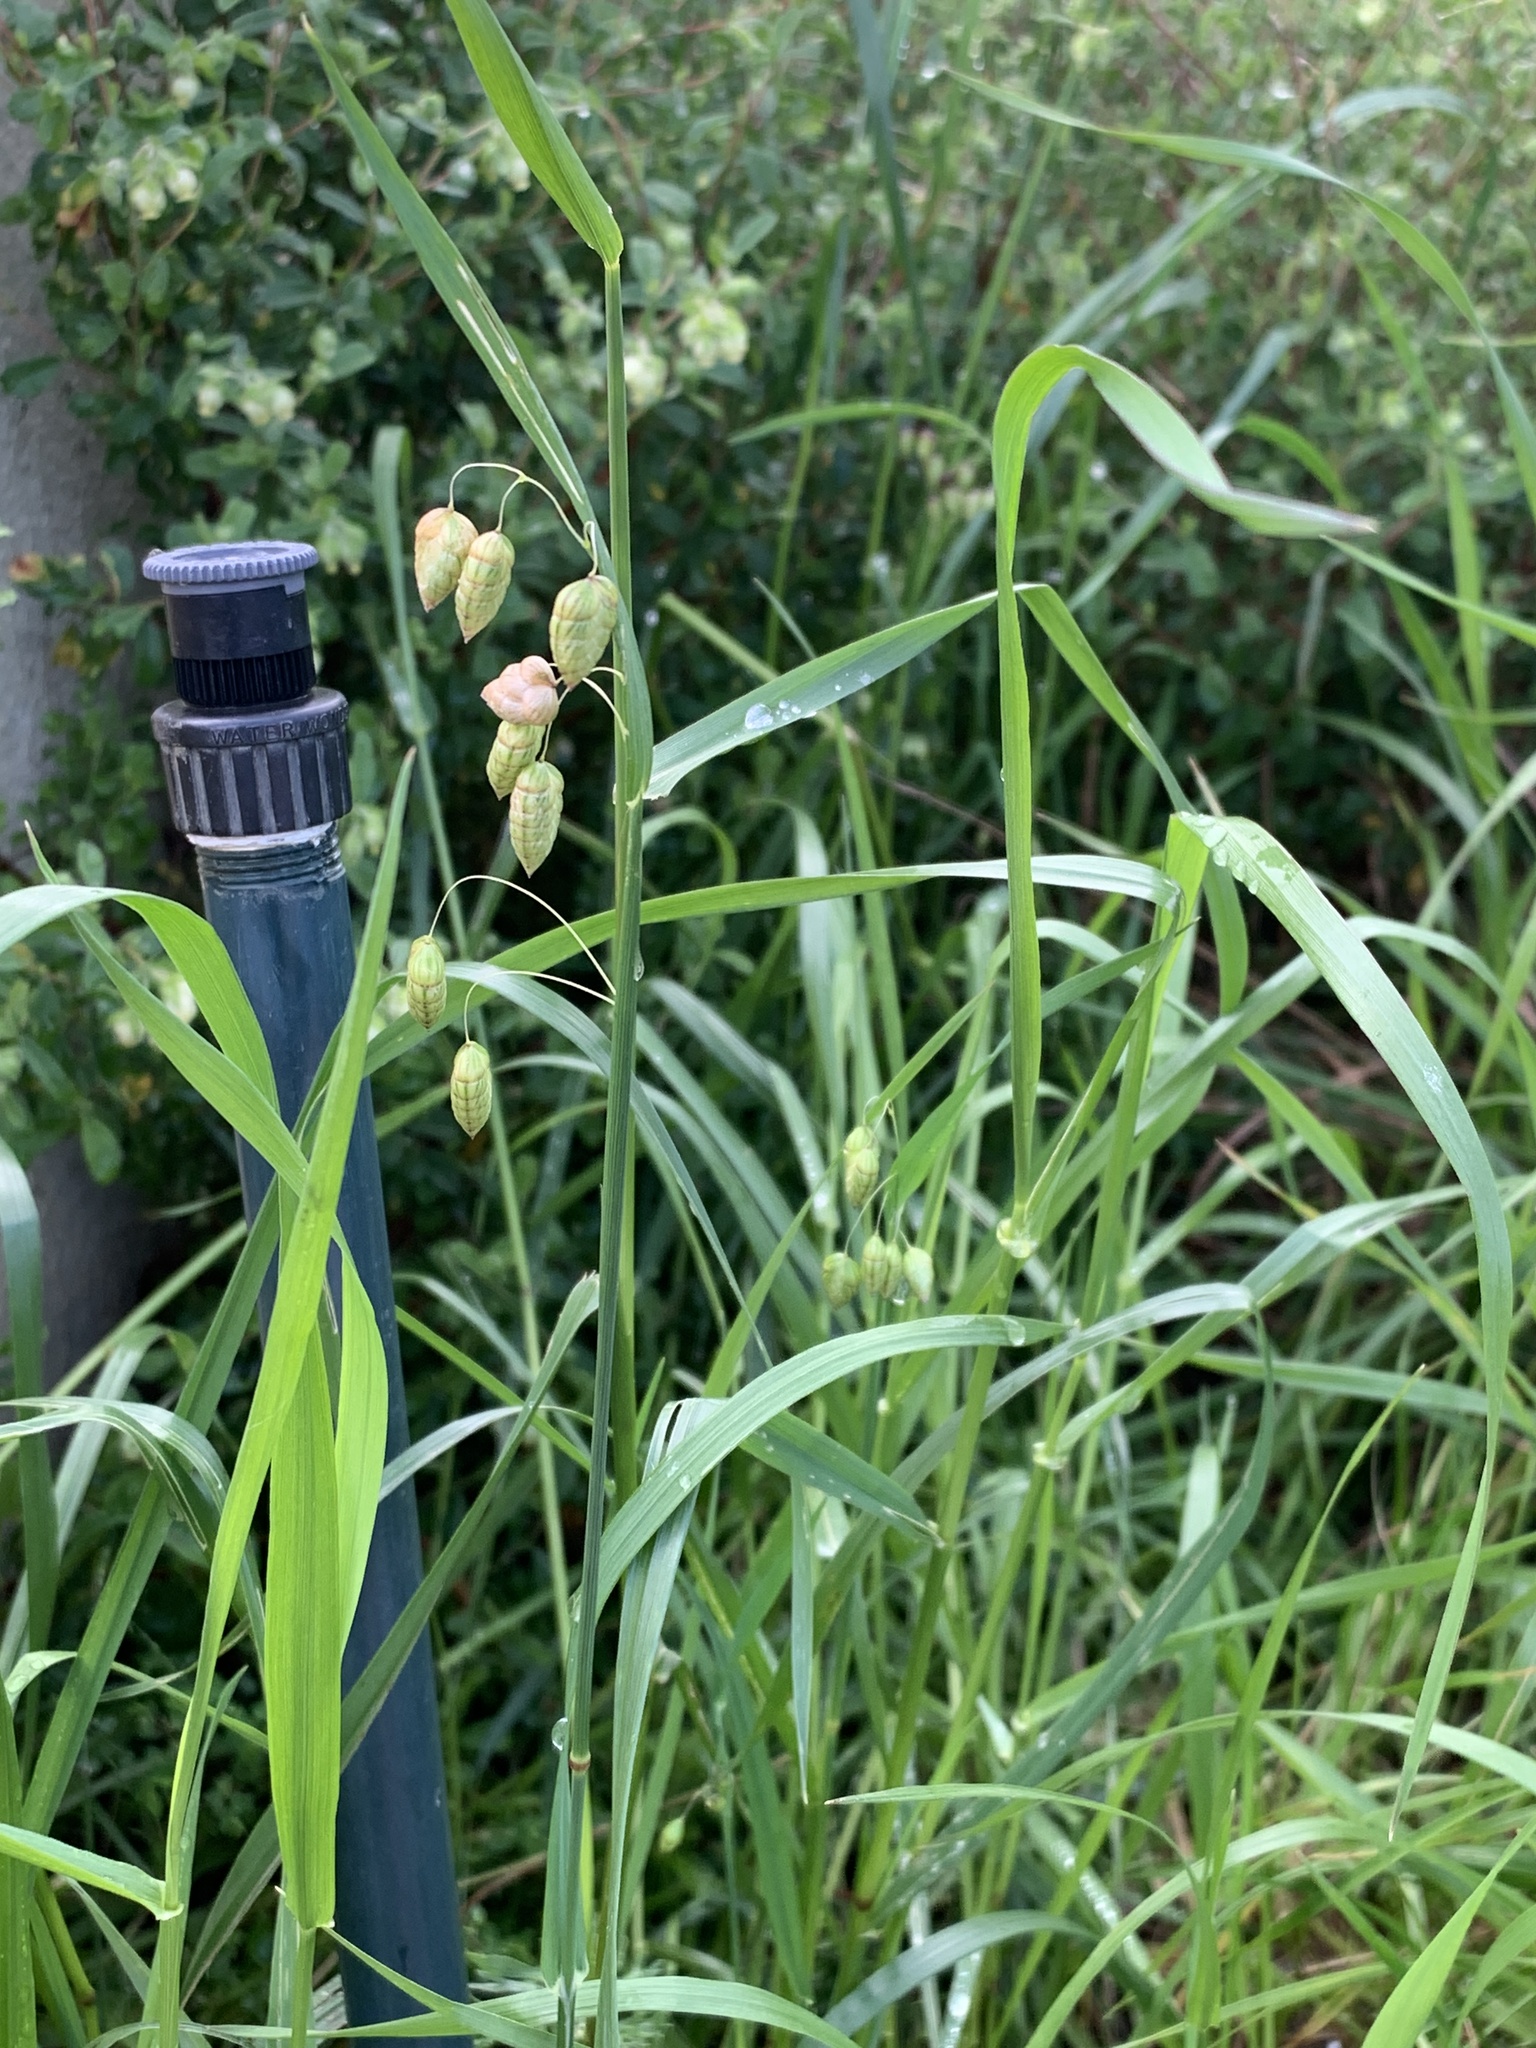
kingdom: Plantae
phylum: Tracheophyta
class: Liliopsida
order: Poales
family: Poaceae
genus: Briza
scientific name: Briza maxima
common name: Big quakinggrass
